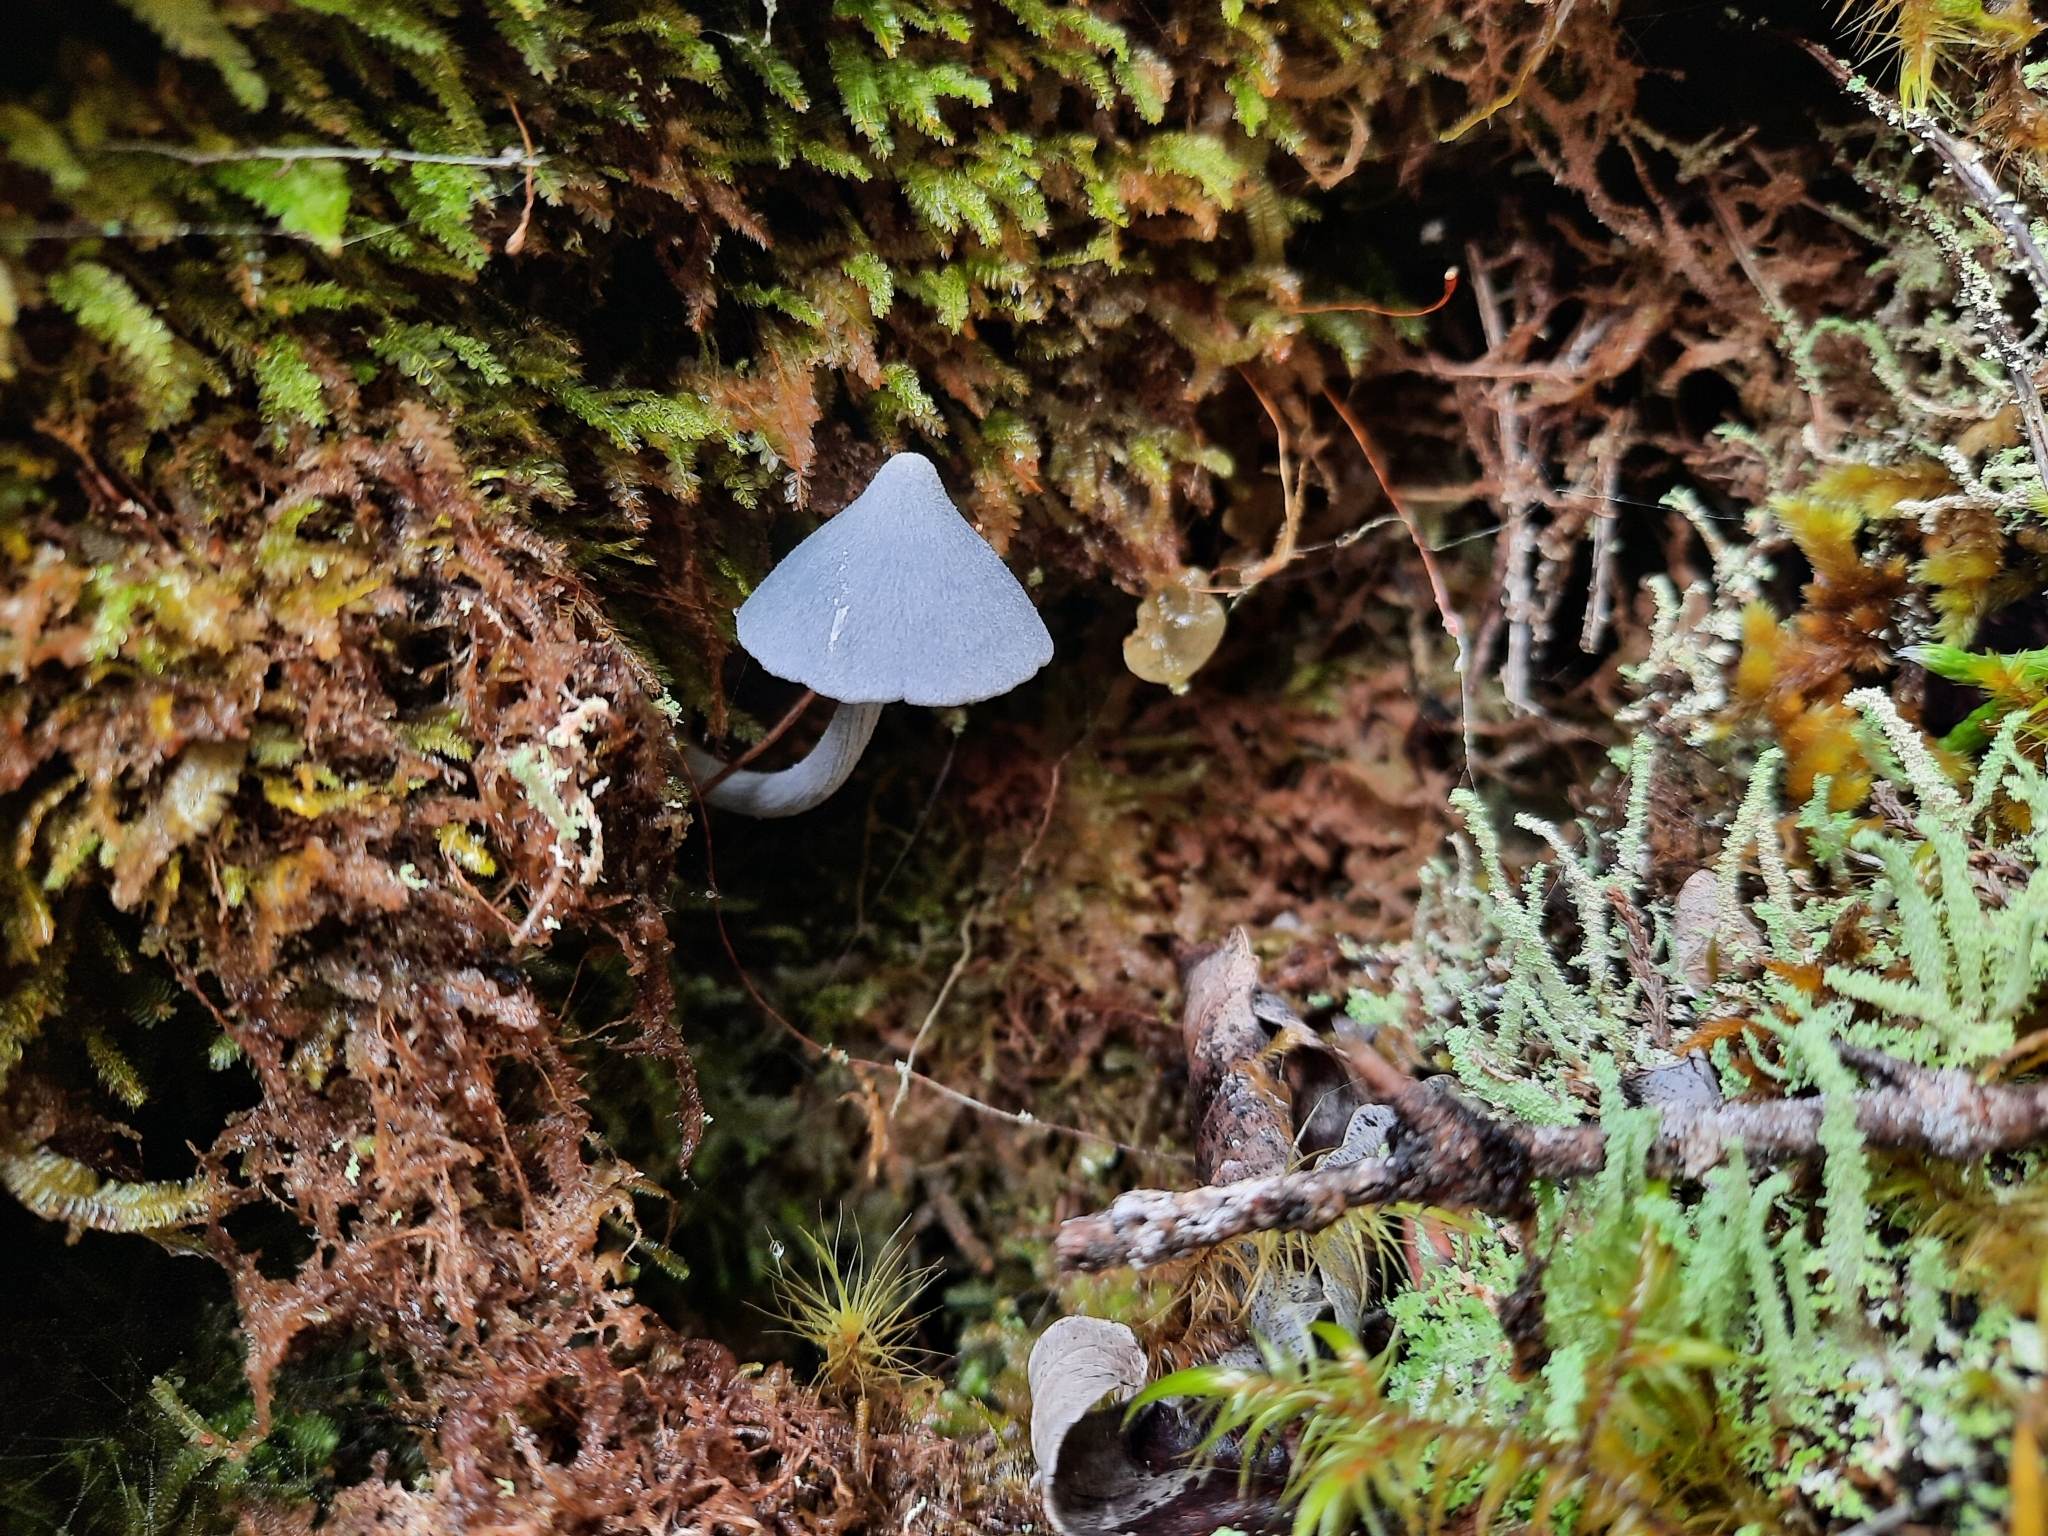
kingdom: Fungi
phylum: Basidiomycota
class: Agaricomycetes
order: Agaricales
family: Entolomataceae
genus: Entoloma
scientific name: Entoloma hochstetteri
